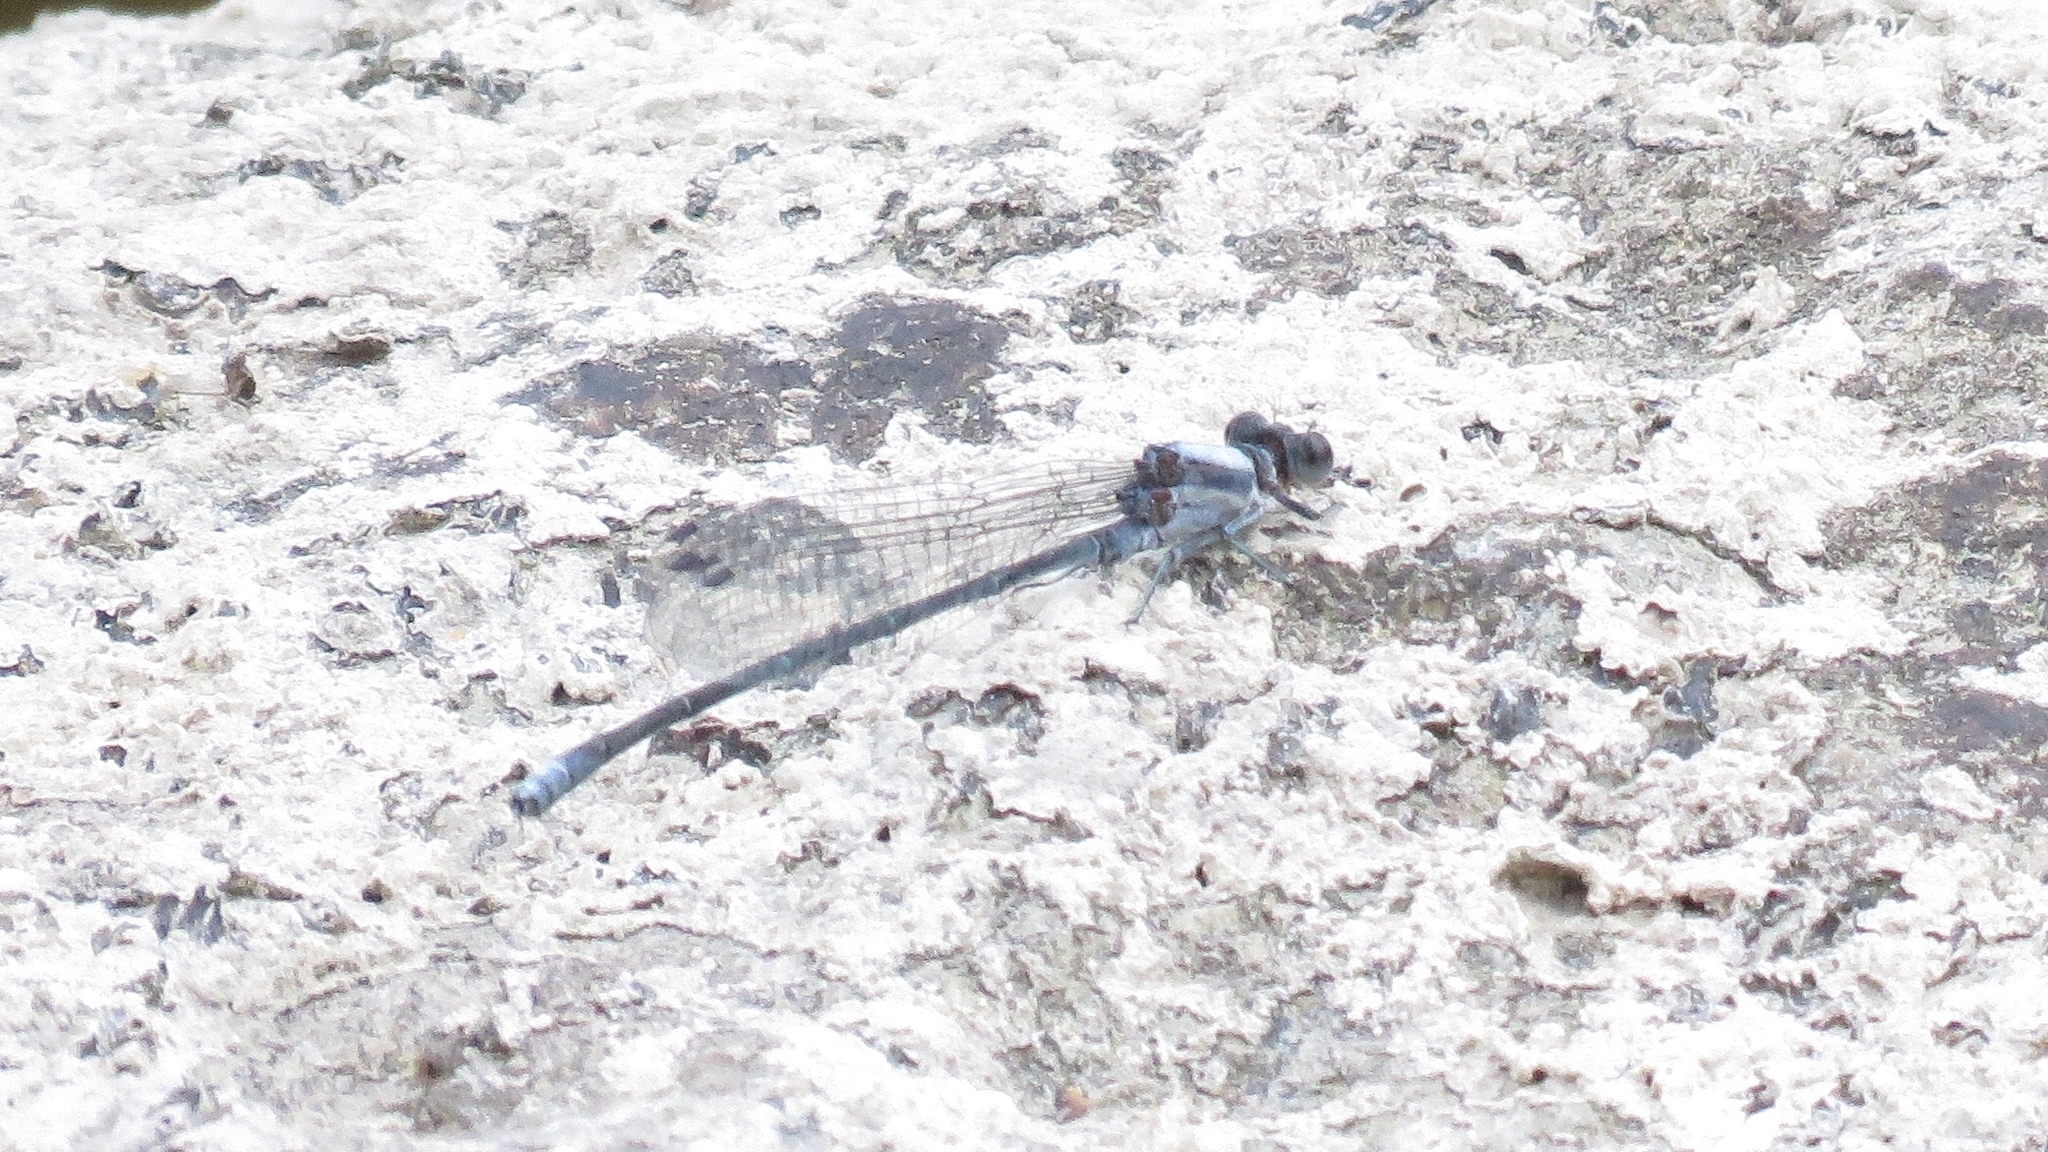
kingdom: Animalia
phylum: Arthropoda
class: Insecta
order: Odonata
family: Coenagrionidae
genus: Argia
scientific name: Argia moesta
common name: Powdered dancer
